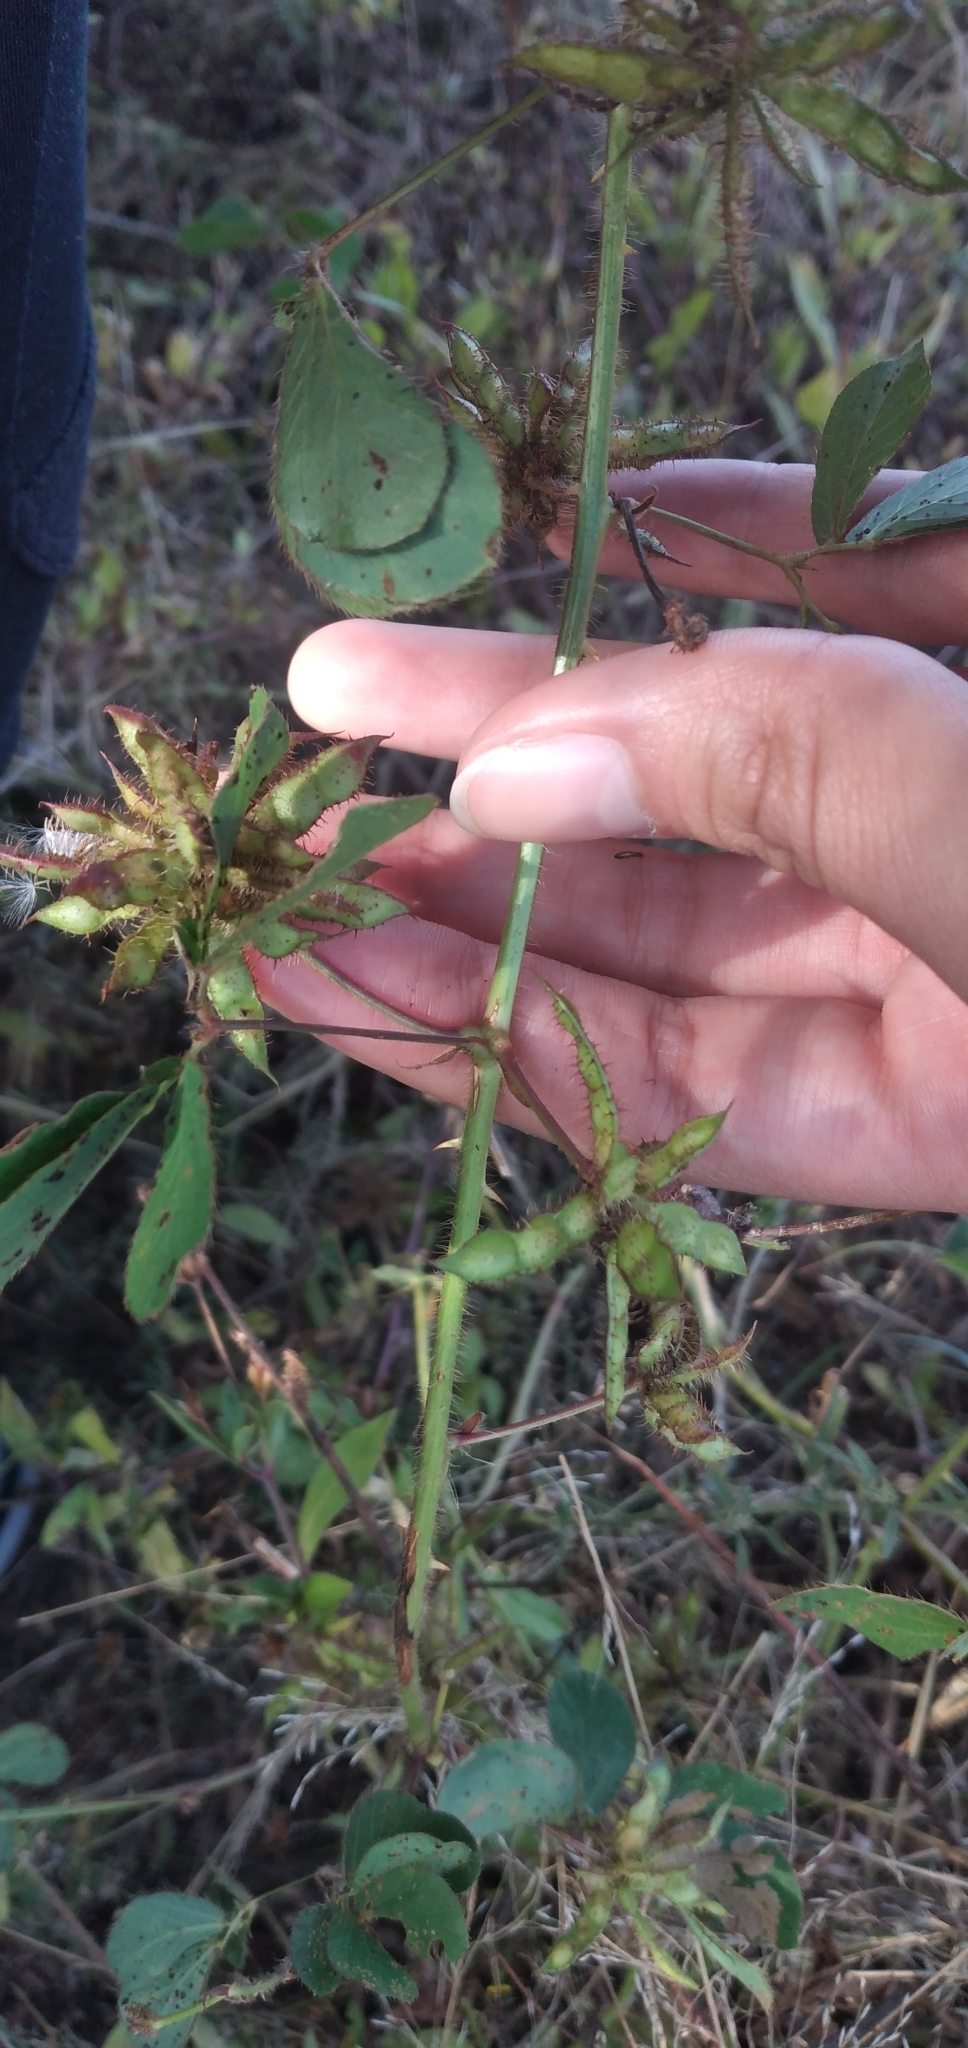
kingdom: Plantae
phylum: Tracheophyta
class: Magnoliopsida
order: Fabales
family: Fabaceae
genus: Mimosa
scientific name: Mimosa velloziana
